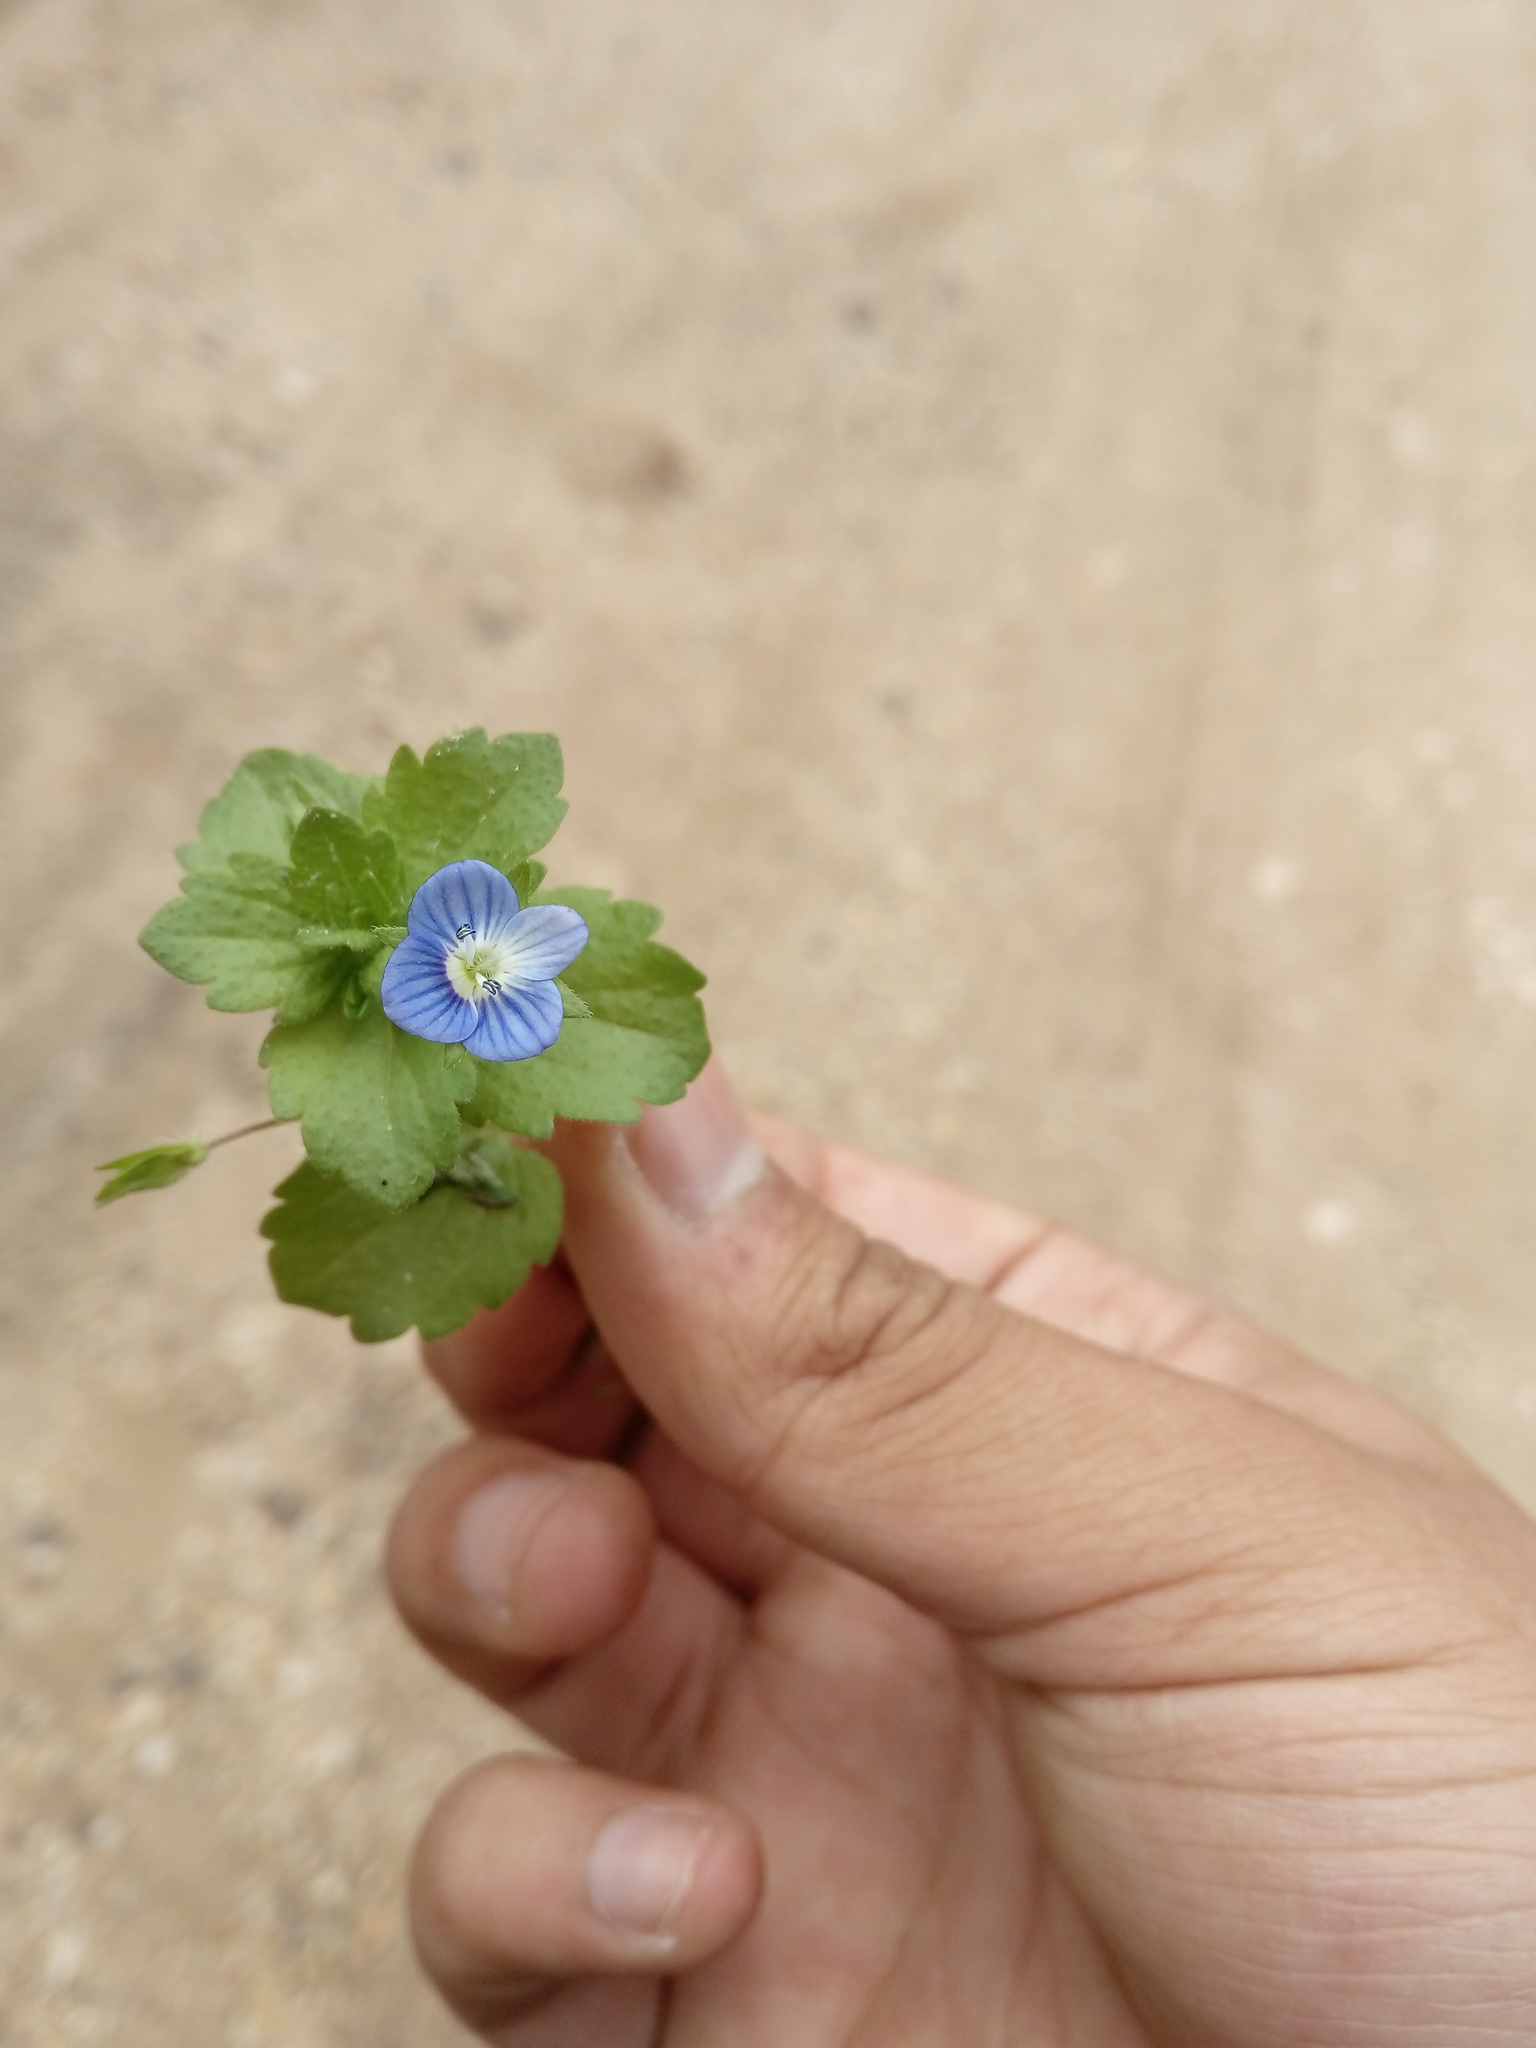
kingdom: Plantae
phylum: Tracheophyta
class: Magnoliopsida
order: Lamiales
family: Plantaginaceae
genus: Veronica
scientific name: Veronica persica
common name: Common field-speedwell
